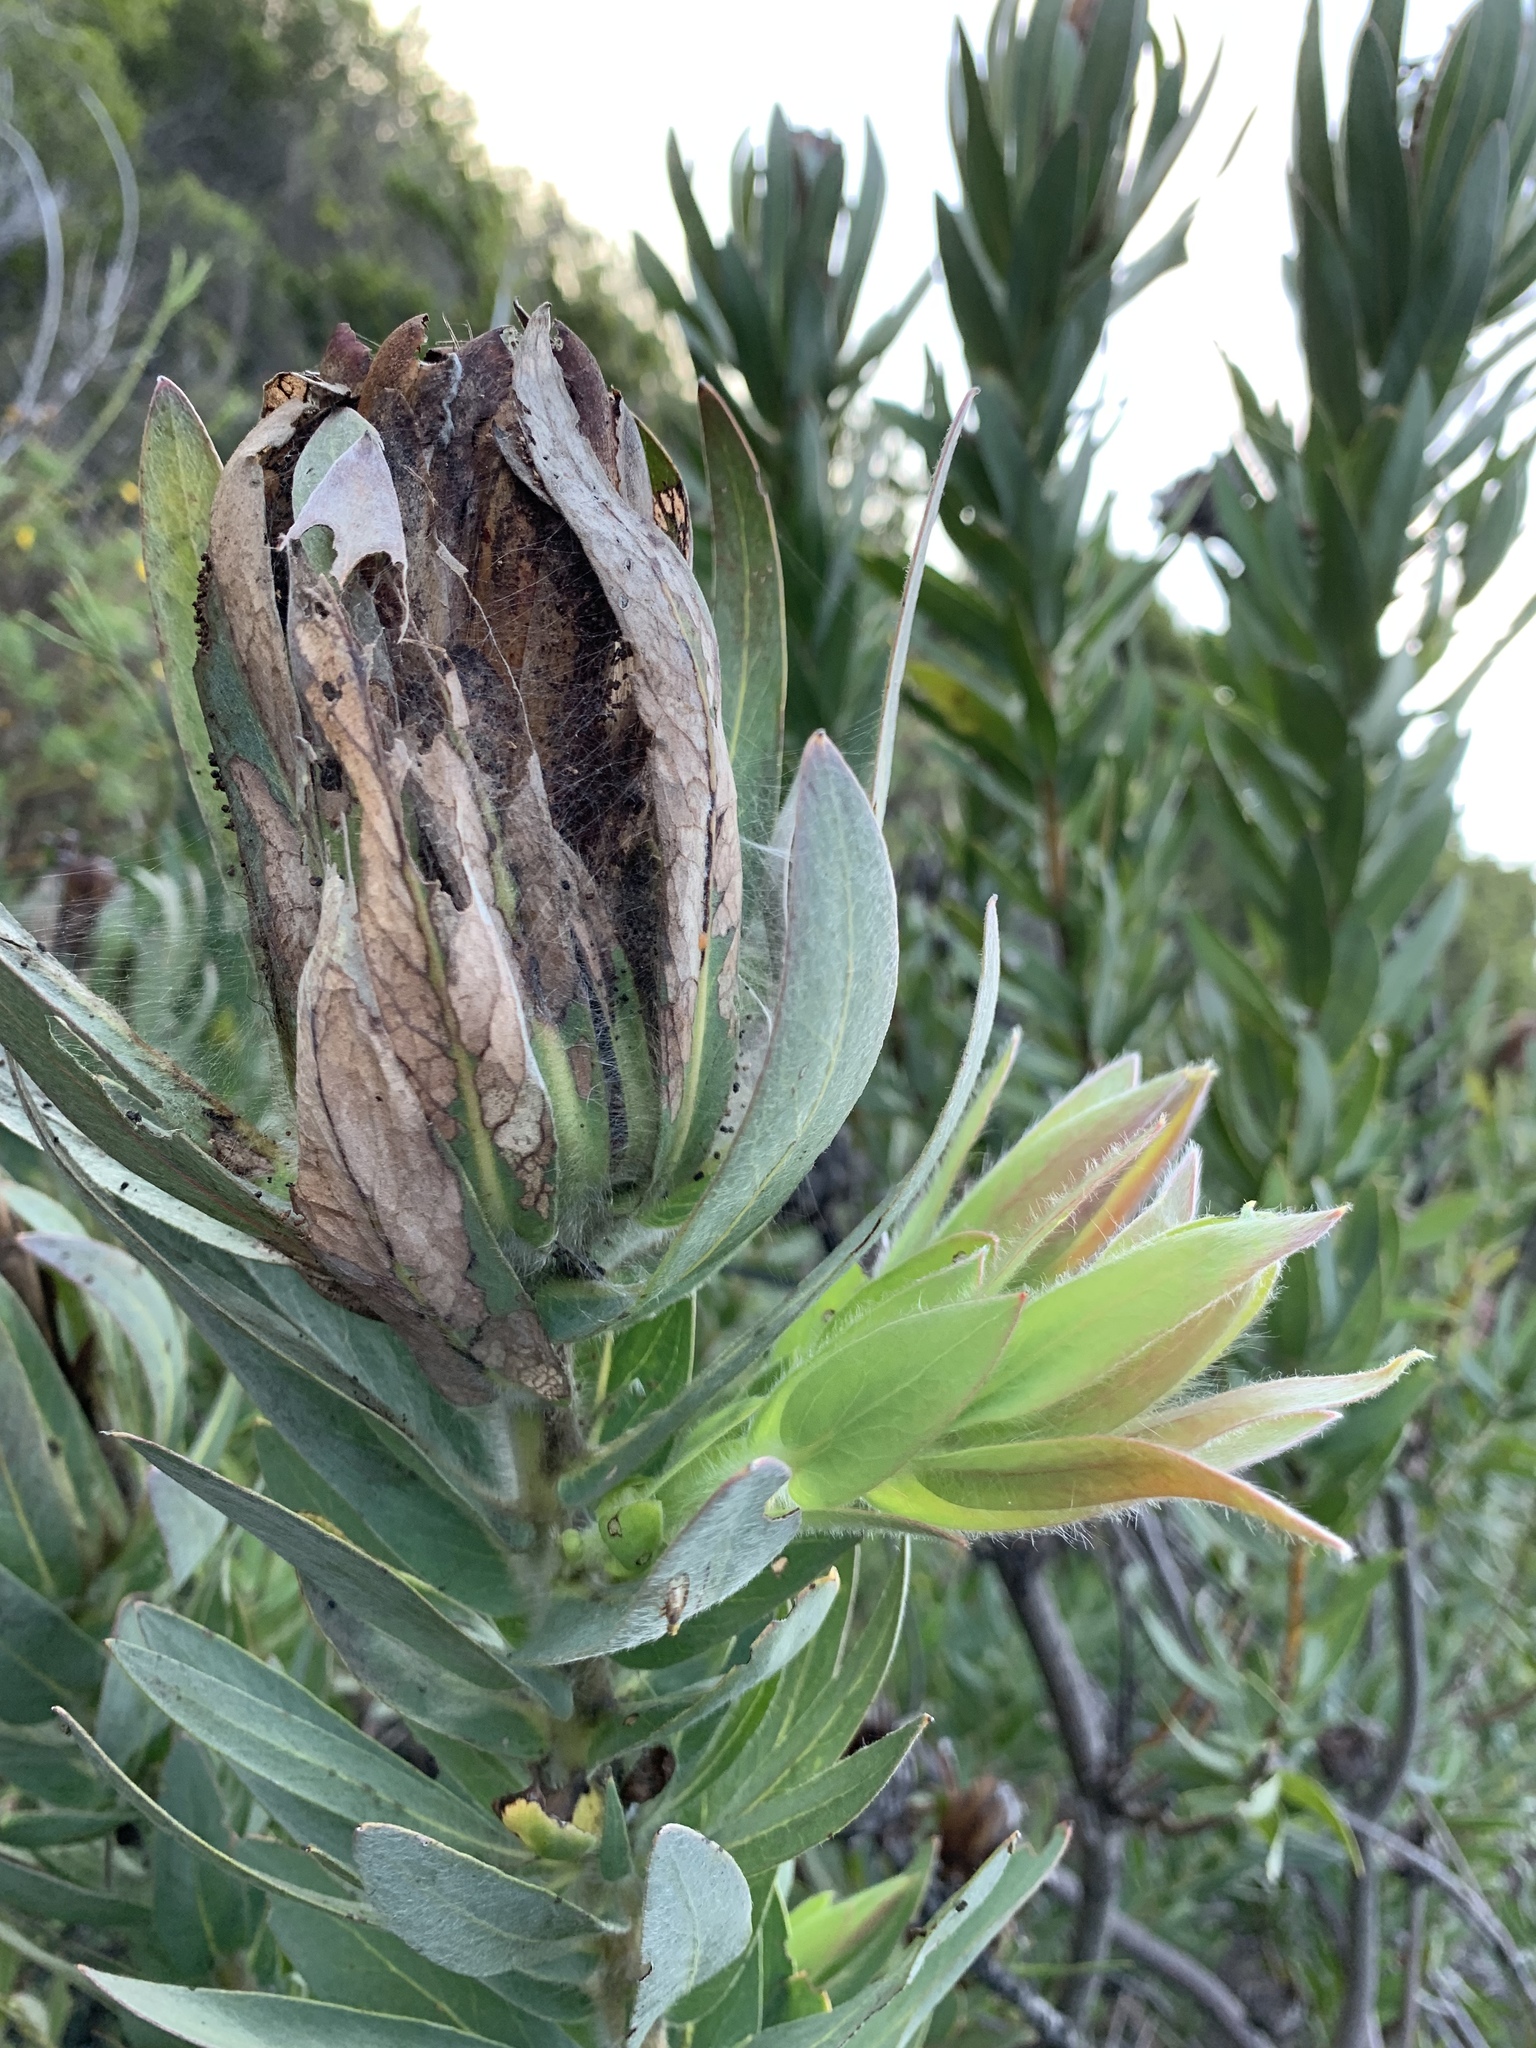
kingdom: Plantae
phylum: Tracheophyta
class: Magnoliopsida
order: Proteales
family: Proteaceae
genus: Protea
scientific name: Protea coronata
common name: Green sugarbush
